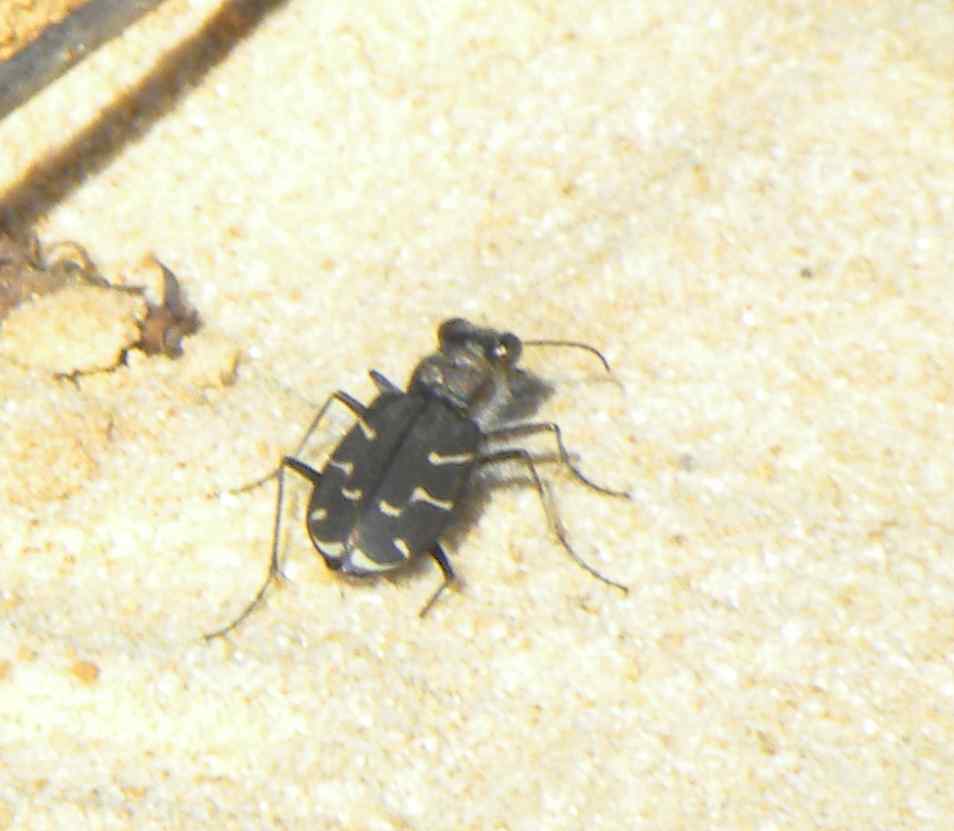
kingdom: Animalia
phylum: Arthropoda
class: Insecta
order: Coleoptera
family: Carabidae
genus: Cicindela
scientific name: Cicindela tranquebarica
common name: Oblique-lined tiger beetle
